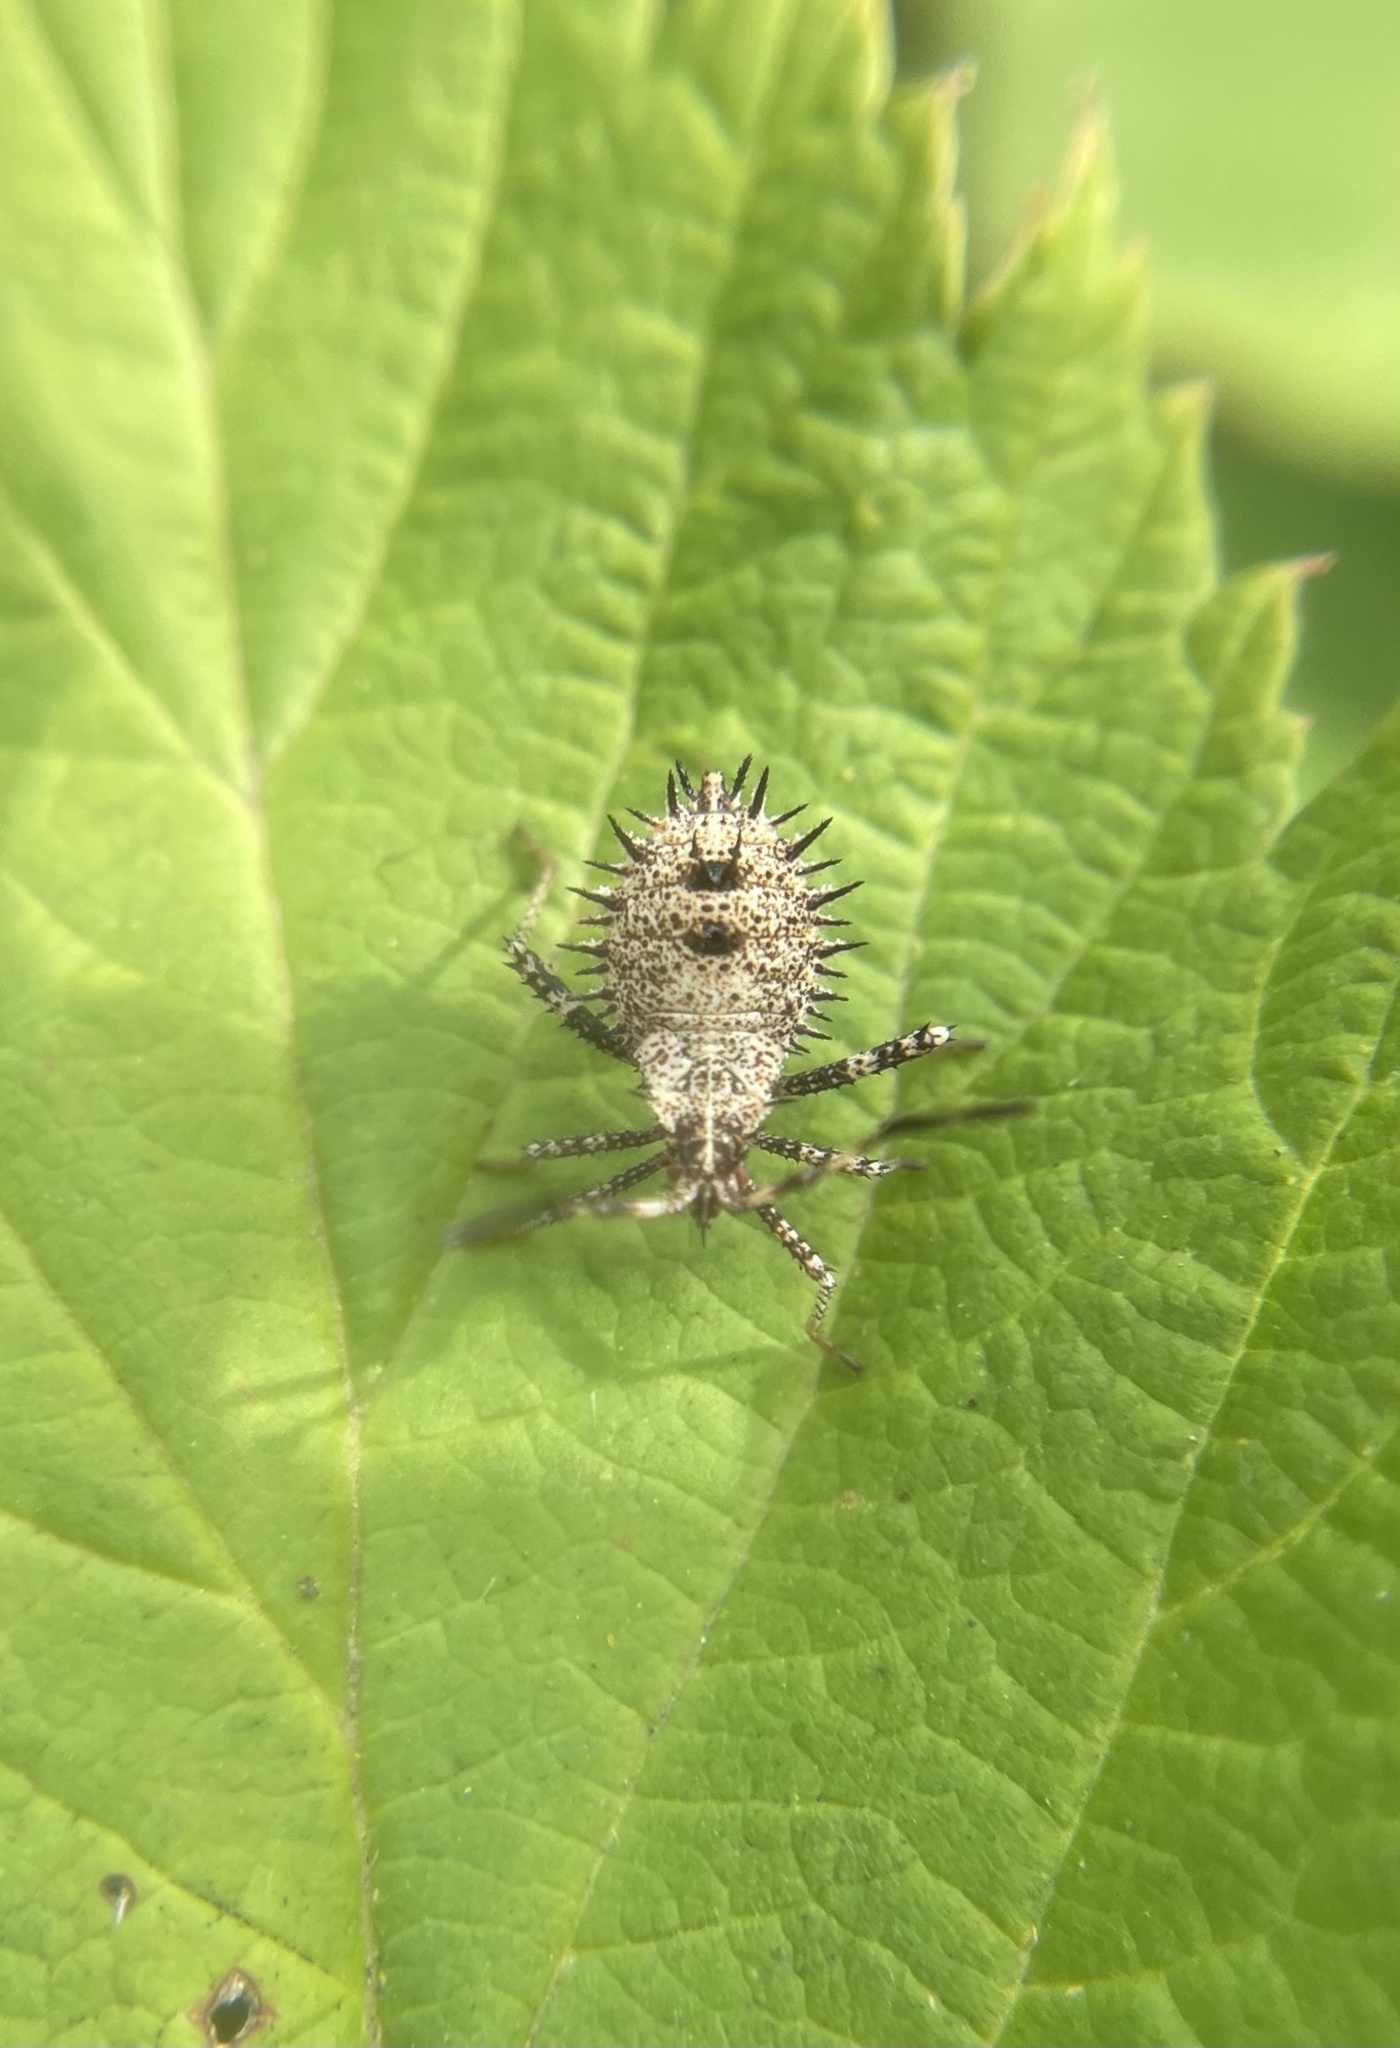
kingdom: Animalia
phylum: Arthropoda
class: Insecta
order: Hemiptera
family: Coreidae
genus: Euthochtha
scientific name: Euthochtha galeator
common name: Helmeted squash bug
